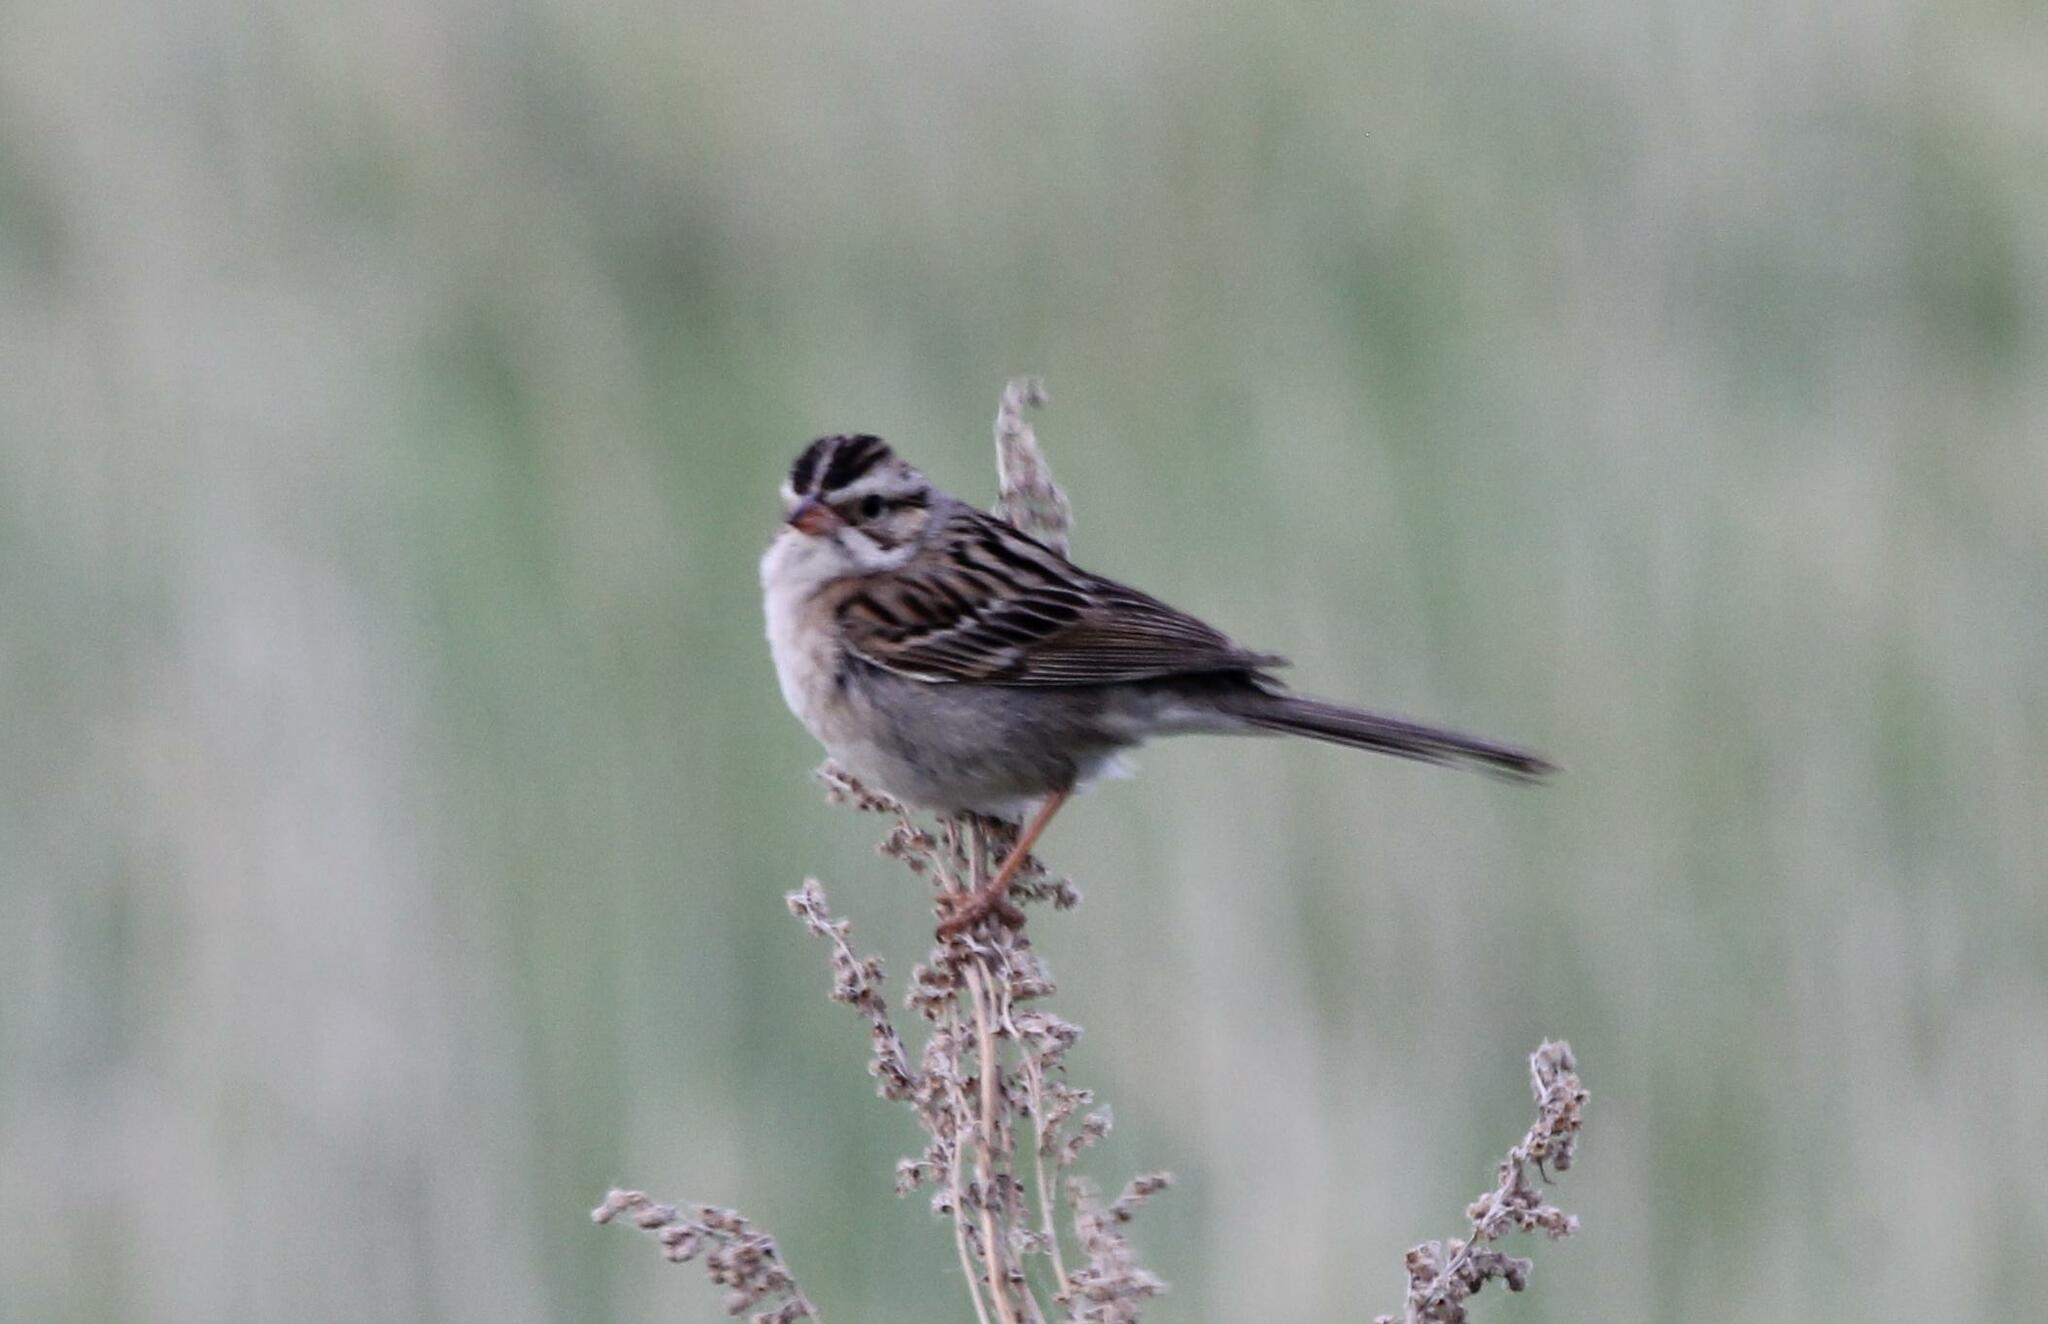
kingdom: Animalia
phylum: Chordata
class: Aves
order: Passeriformes
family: Passerellidae
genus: Spizella
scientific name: Spizella pallida
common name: Clay-colored sparrow
